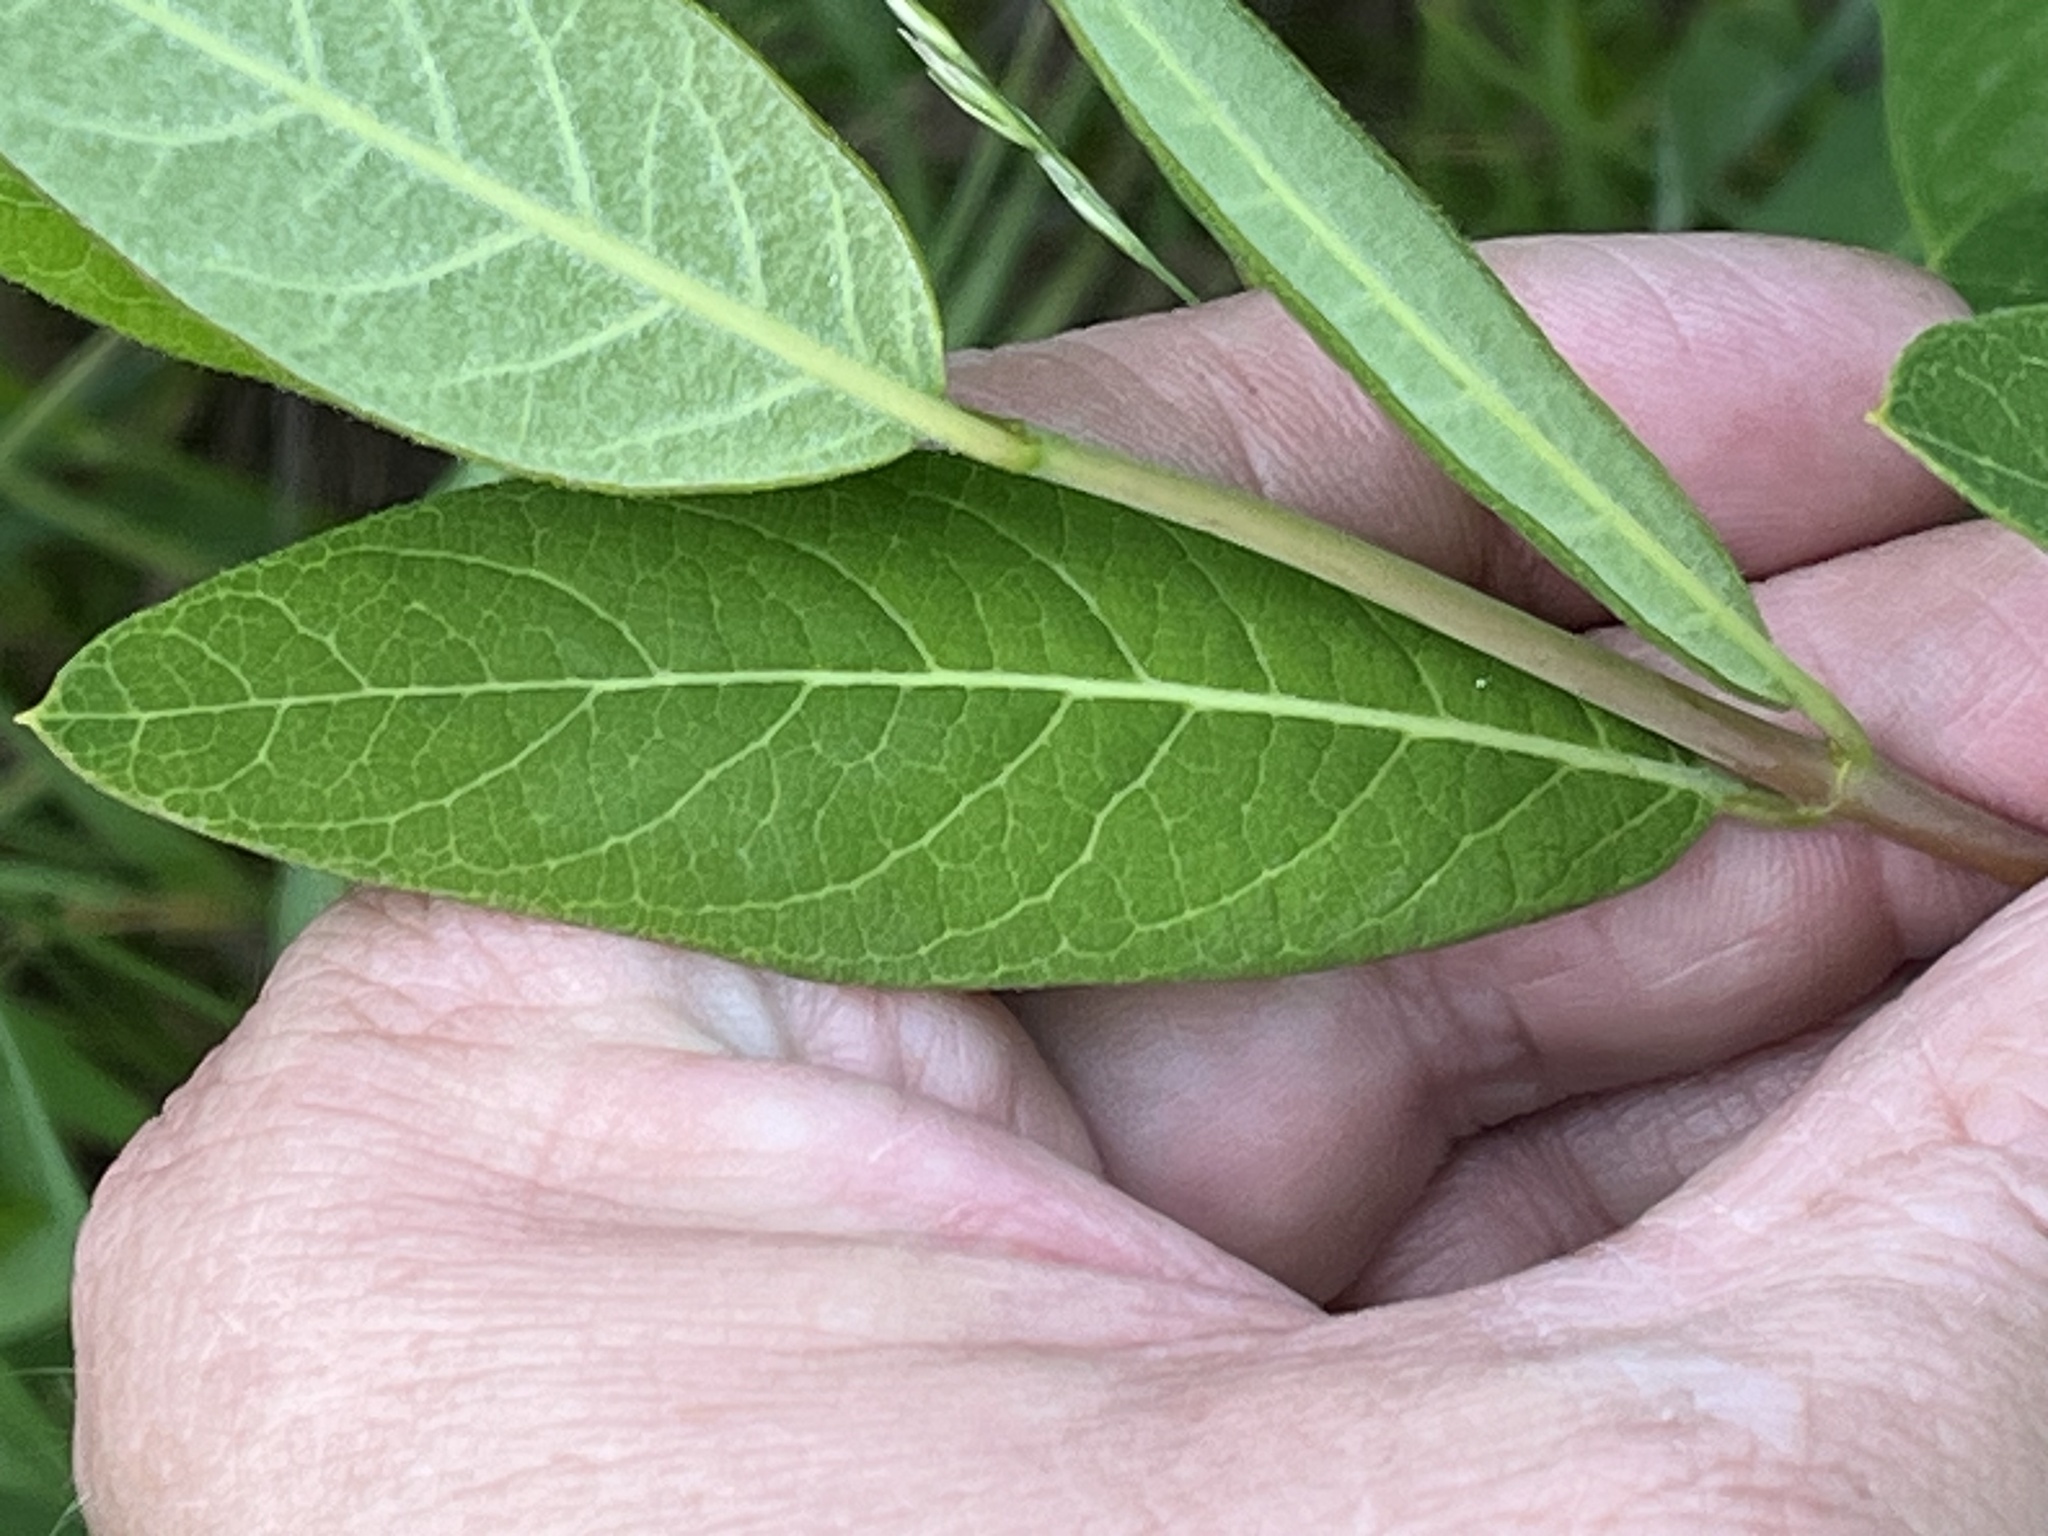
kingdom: Plantae
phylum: Tracheophyta
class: Magnoliopsida
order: Gentianales
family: Apocynaceae
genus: Apocynum
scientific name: Apocynum cannabinum
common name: Hemp dogbane
